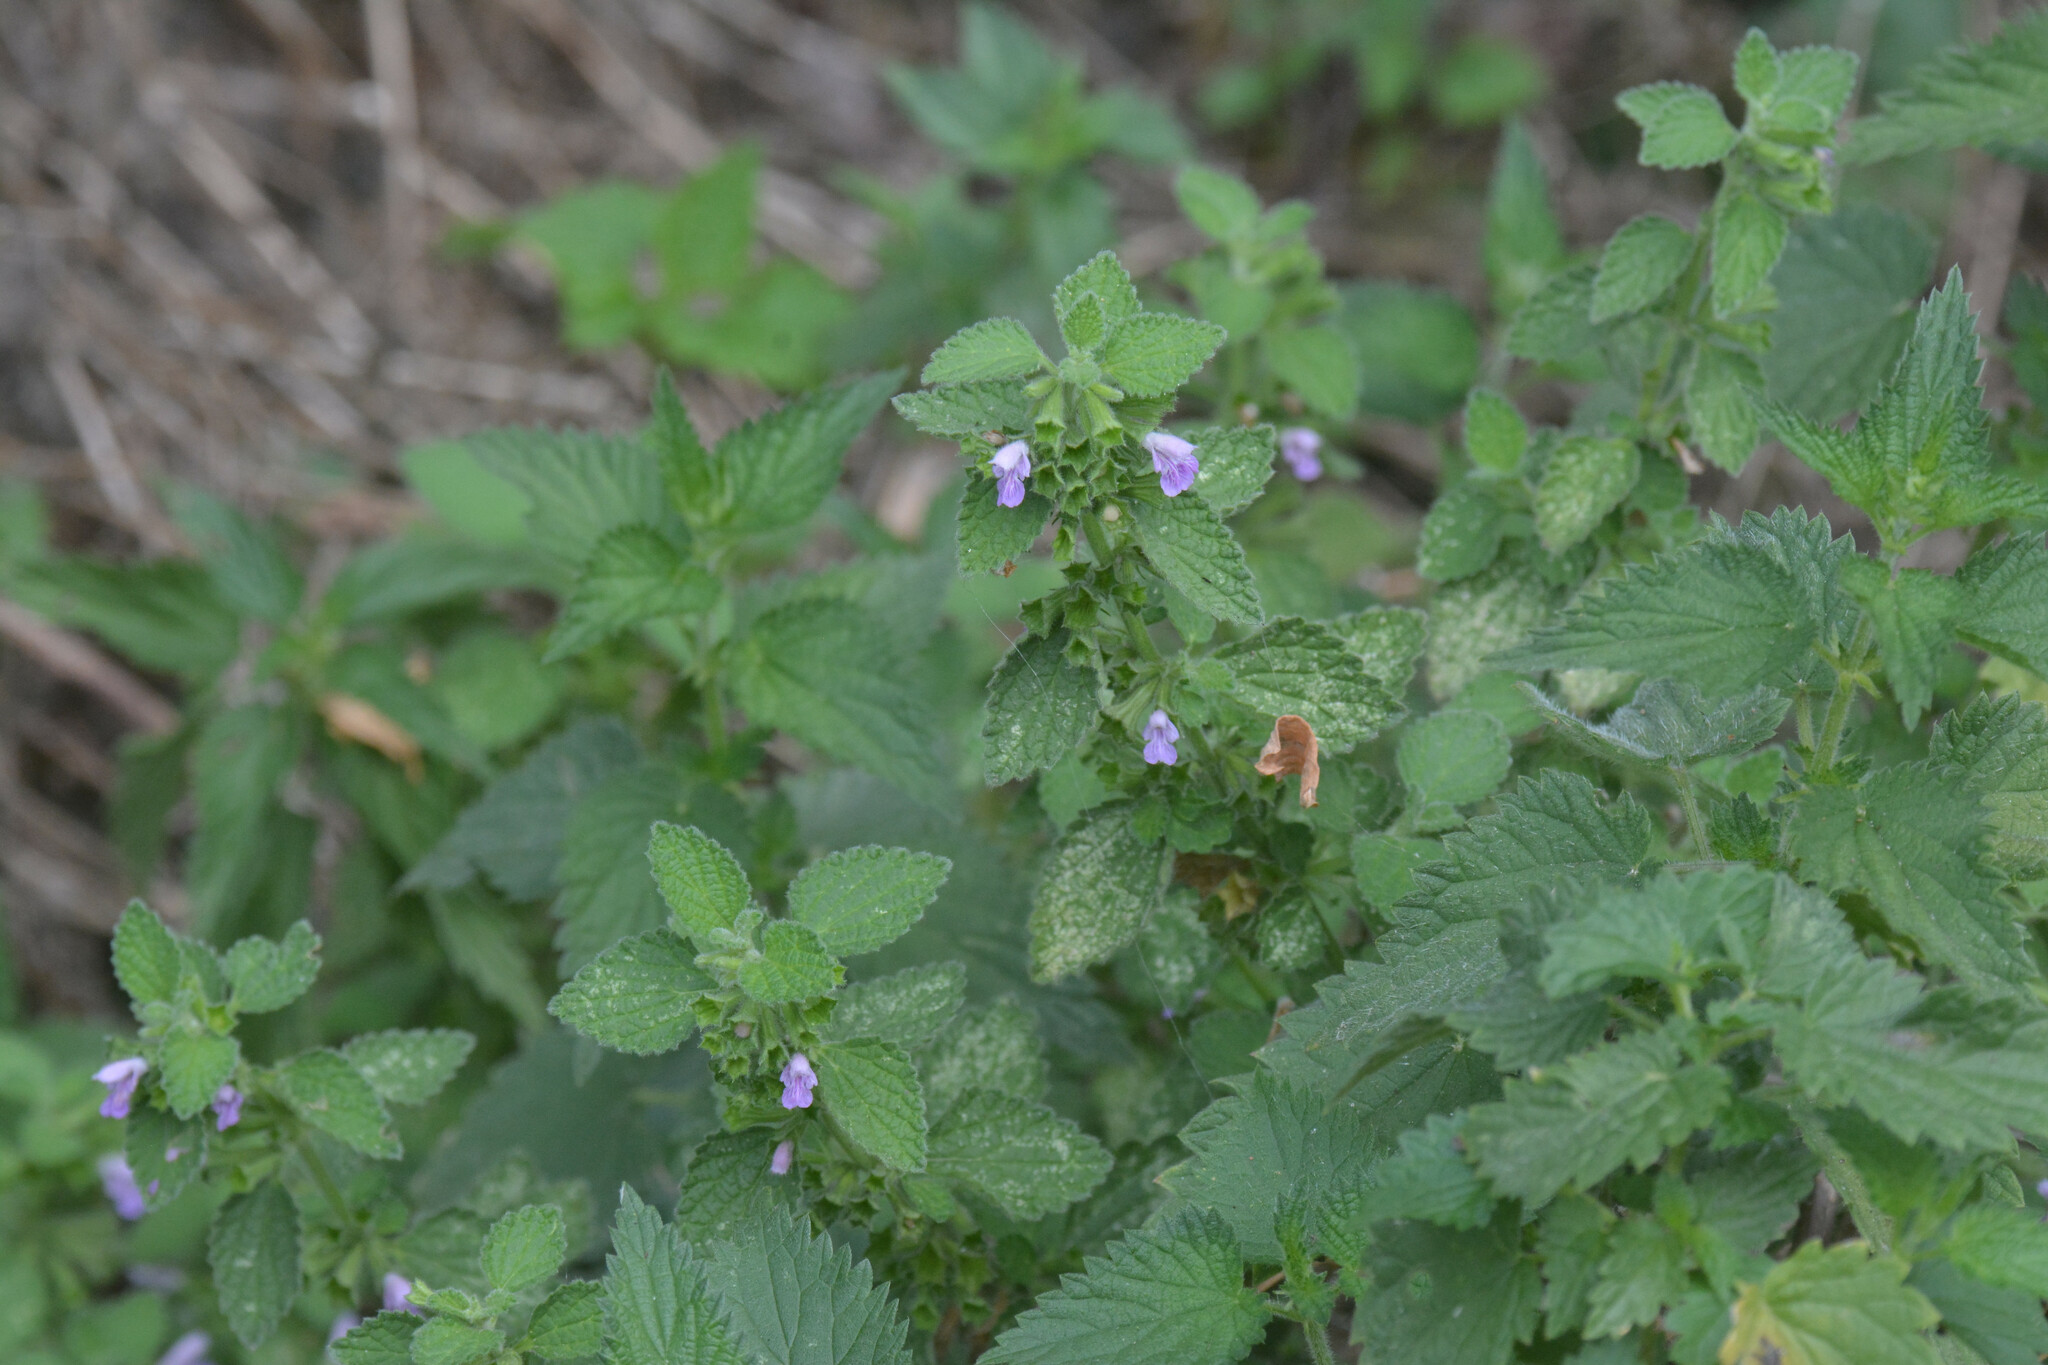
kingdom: Plantae
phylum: Tracheophyta
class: Magnoliopsida
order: Lamiales
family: Lamiaceae
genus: Ballota
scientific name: Ballota nigra
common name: Black horehound
